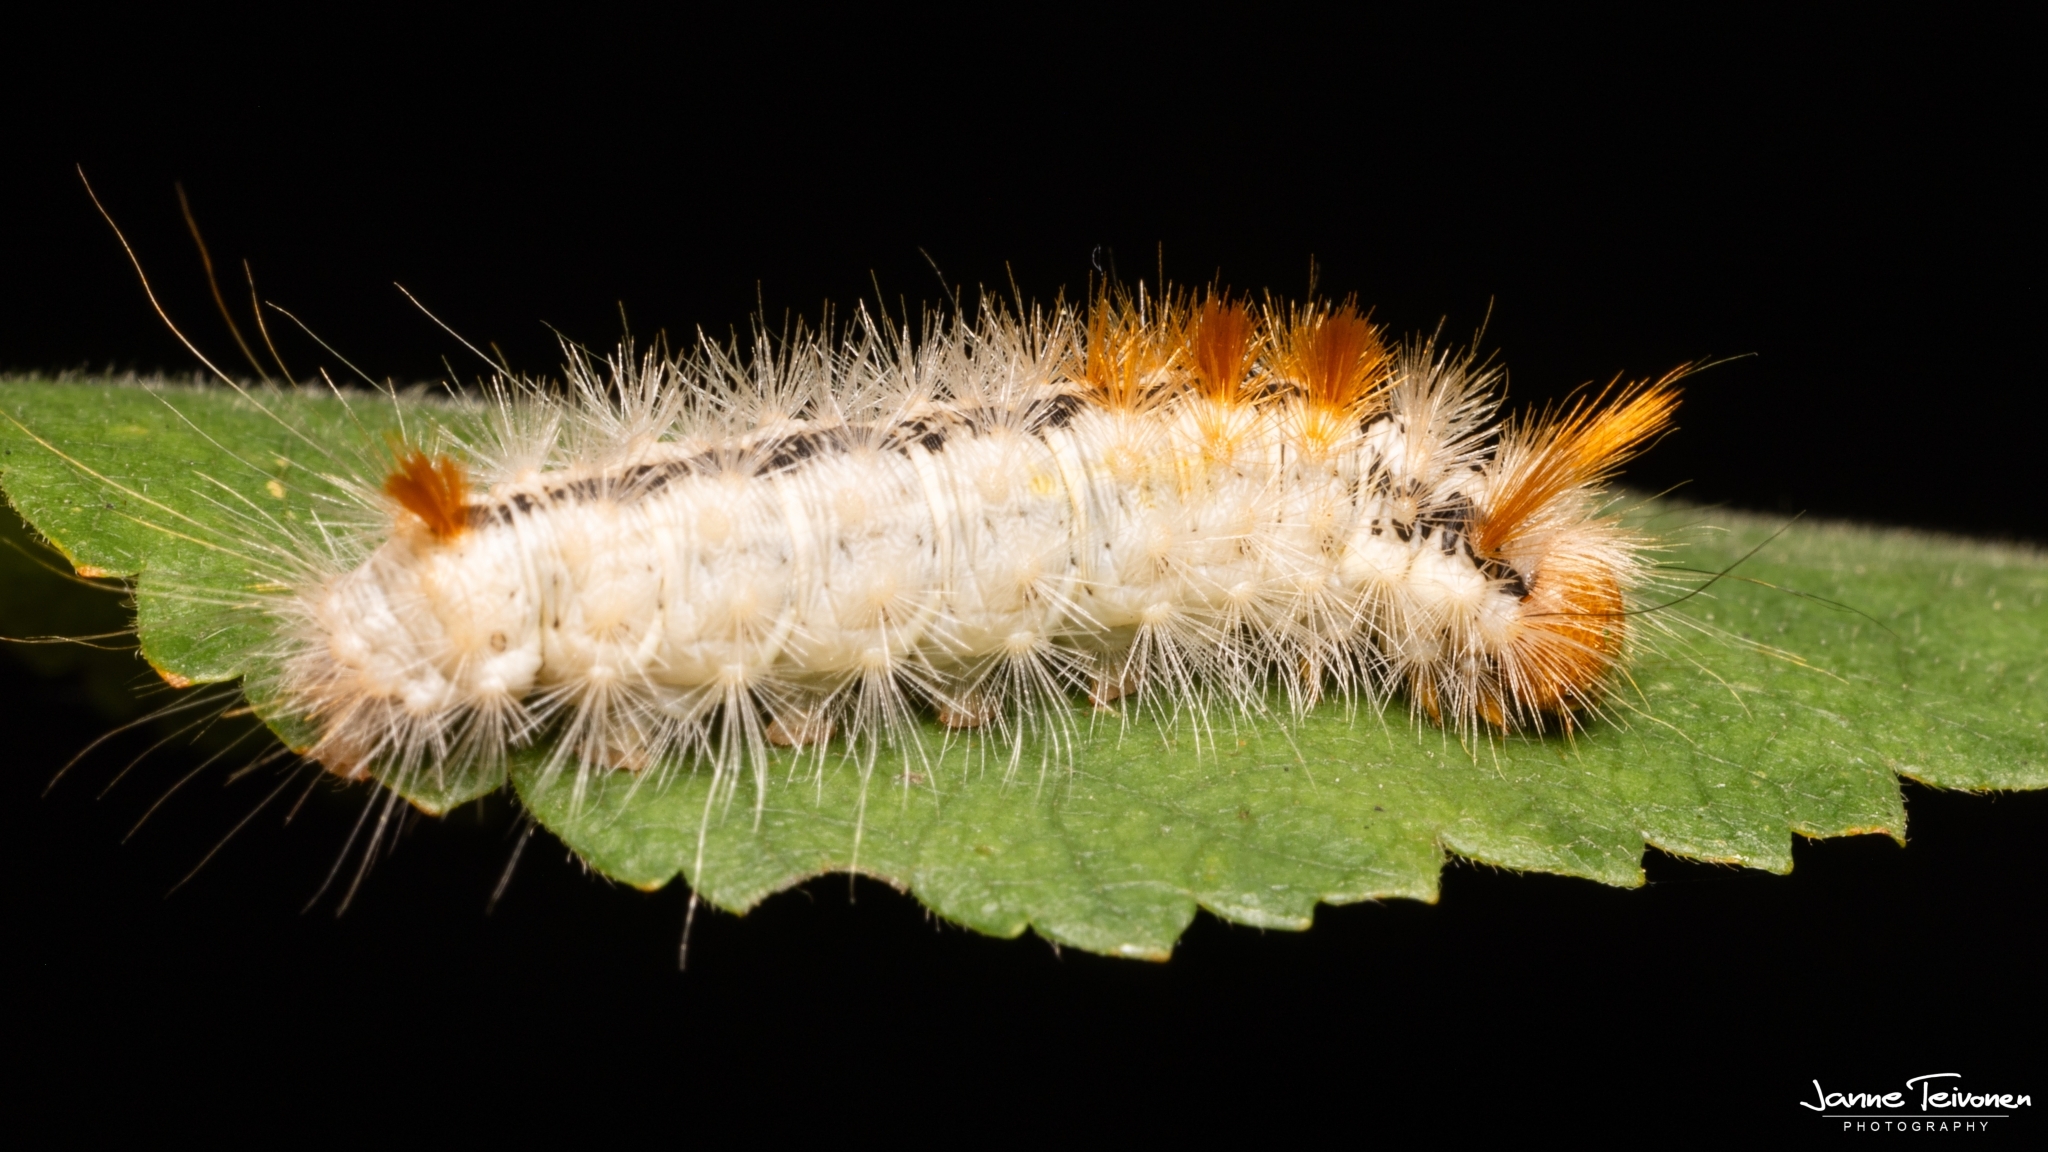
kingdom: Animalia
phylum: Arthropoda
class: Insecta
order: Lepidoptera
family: Noctuidae
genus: Colocasia
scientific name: Colocasia coryli
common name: Nut-tree tussock
